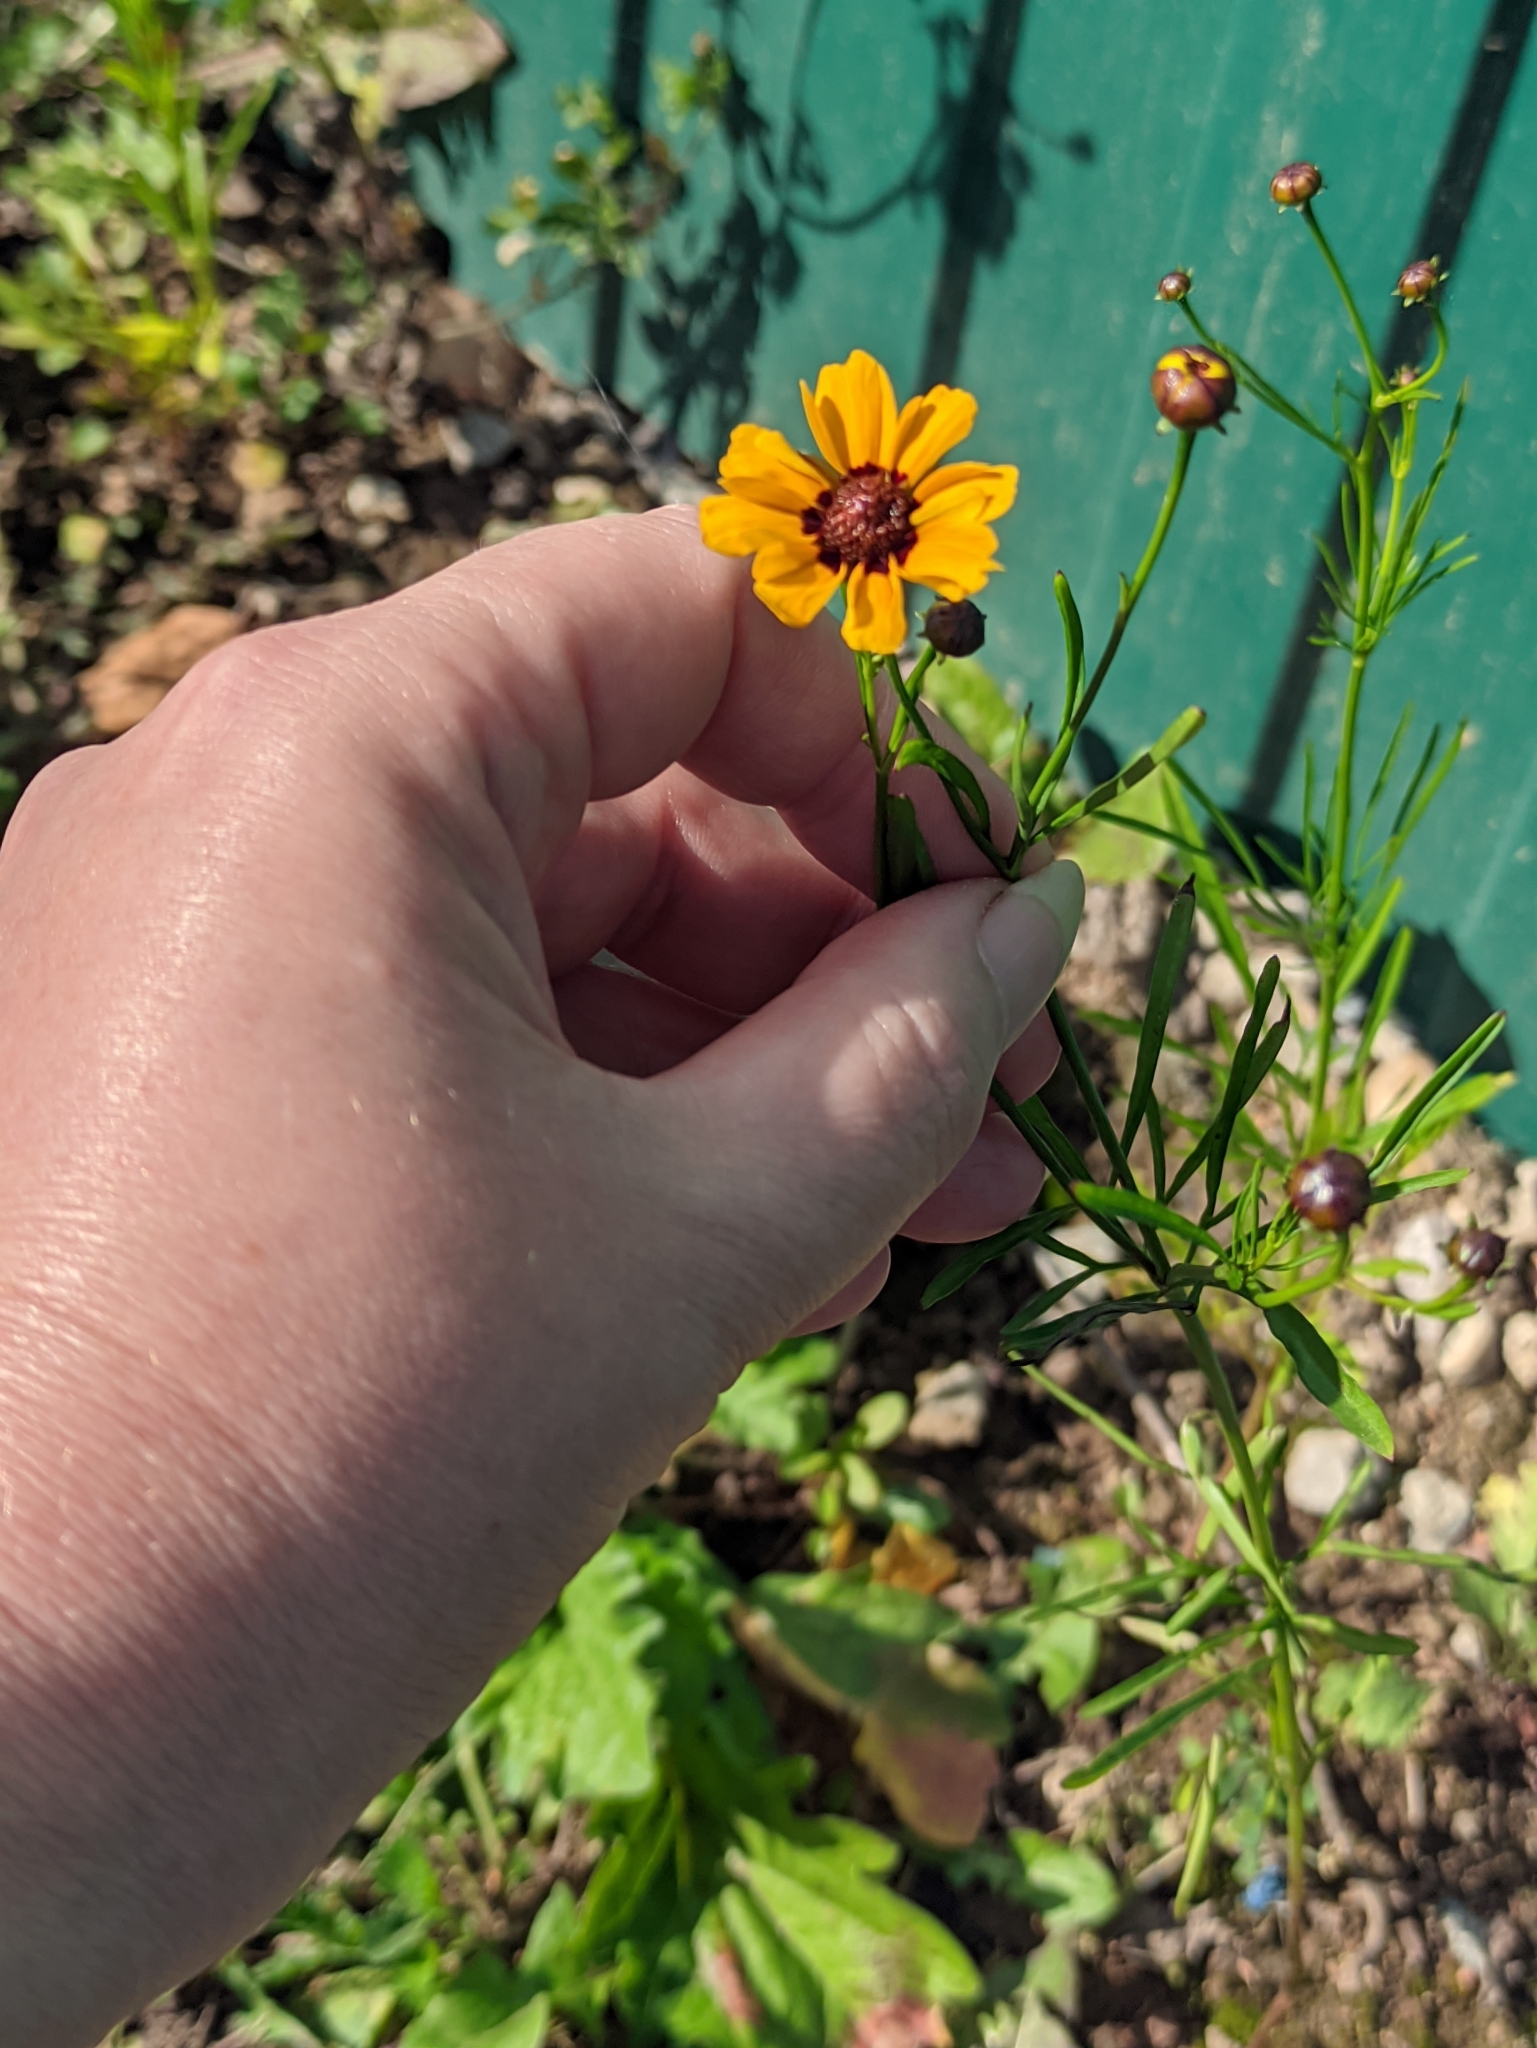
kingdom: Plantae
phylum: Tracheophyta
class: Magnoliopsida
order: Asterales
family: Asteraceae
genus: Coreopsis
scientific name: Coreopsis tinctoria
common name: Garden tickseed
